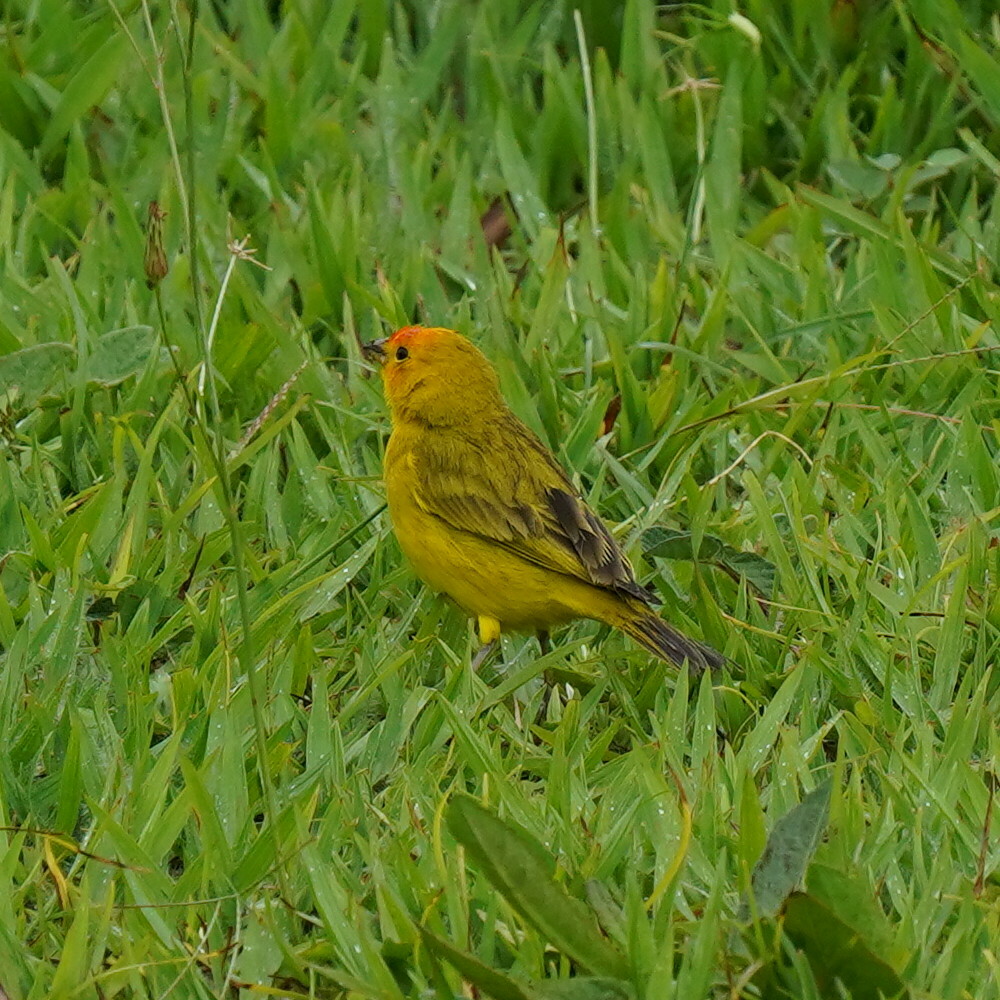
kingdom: Animalia
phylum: Chordata
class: Aves
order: Passeriformes
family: Thraupidae
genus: Sicalis
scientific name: Sicalis flaveola
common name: Saffron finch
